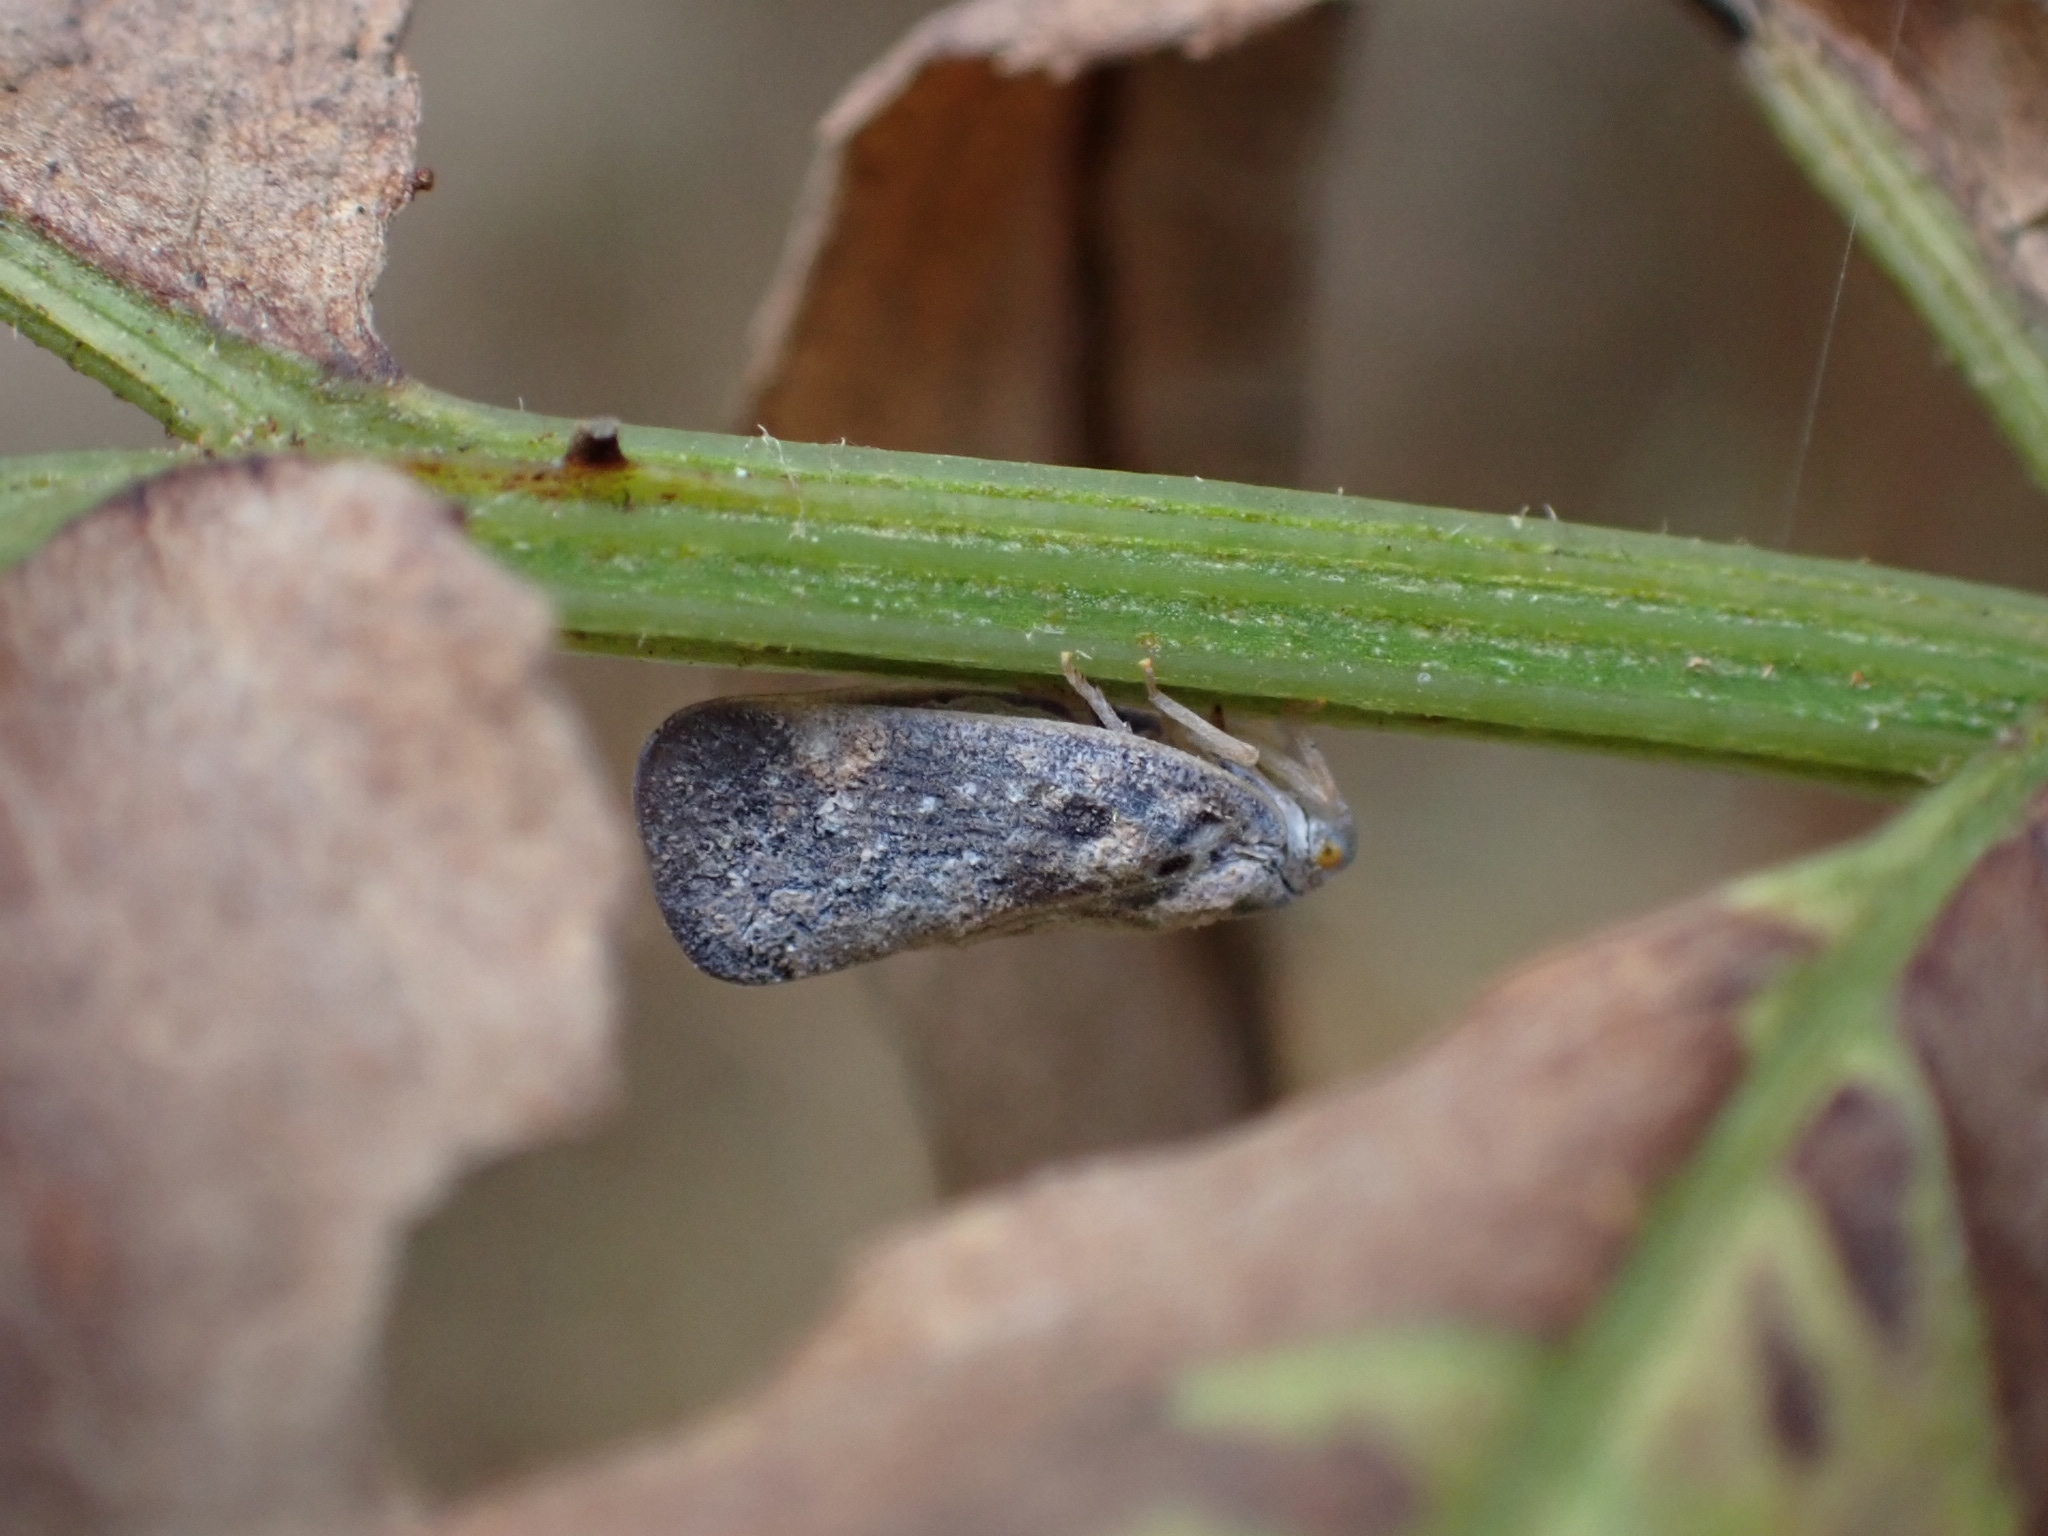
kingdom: Animalia
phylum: Arthropoda
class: Insecta
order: Hemiptera
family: Flatidae
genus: Metcalfa
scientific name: Metcalfa pruinosa
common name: Citrus flatid planthopper
